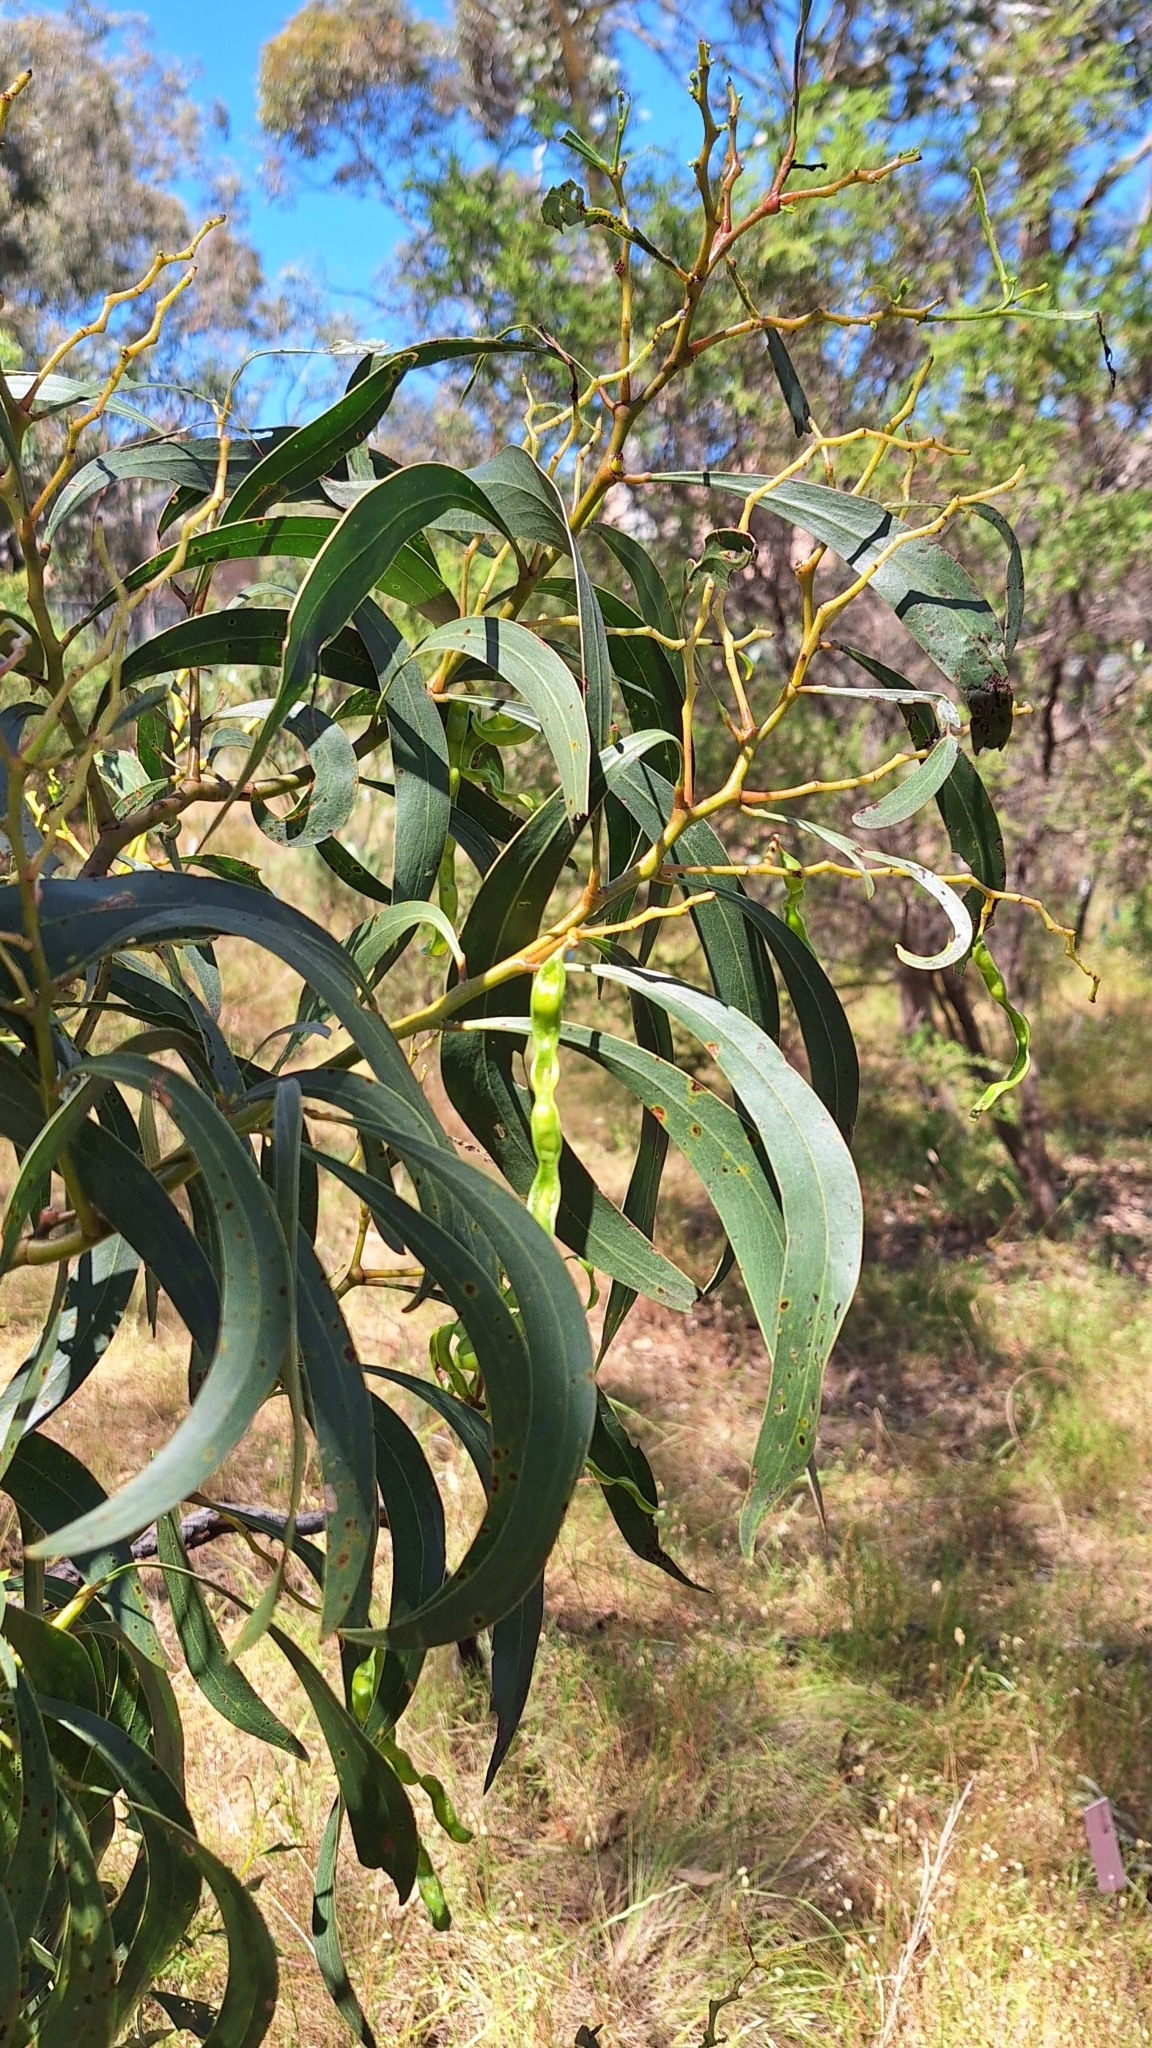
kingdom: Plantae
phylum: Tracheophyta
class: Magnoliopsida
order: Fabales
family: Fabaceae
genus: Acacia
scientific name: Acacia pycnantha
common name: Golden wattle
